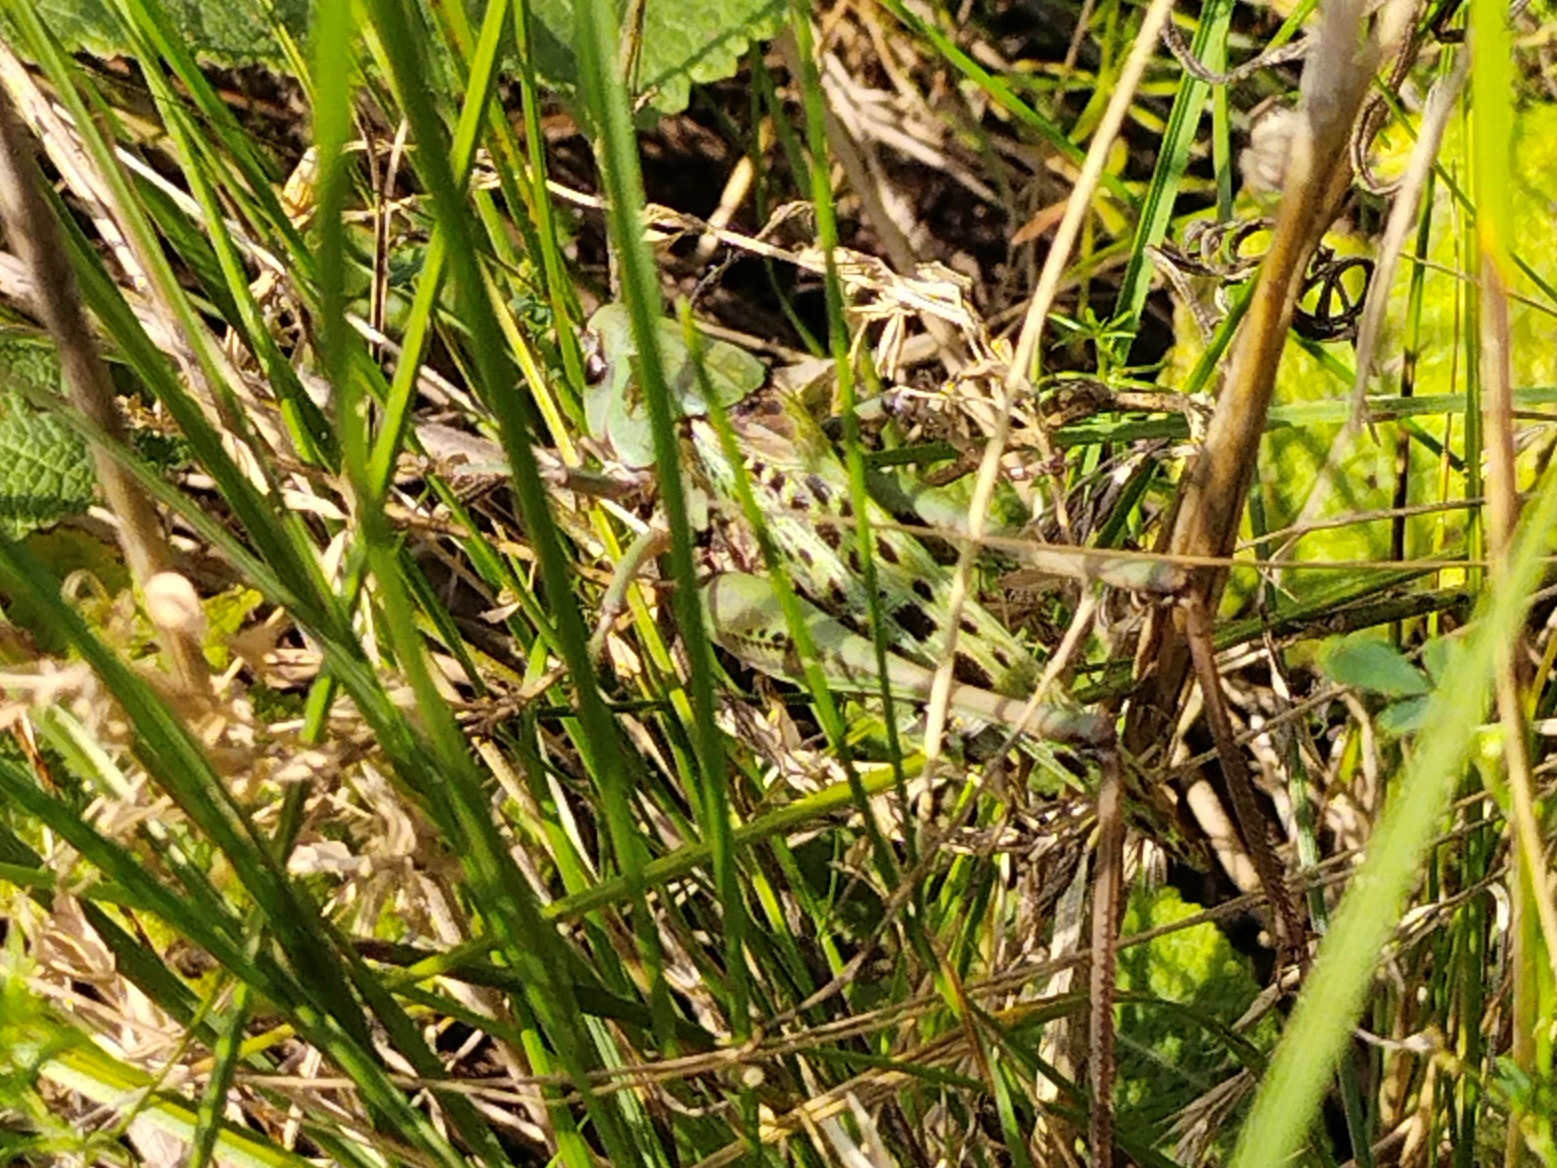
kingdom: Animalia
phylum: Arthropoda
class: Insecta
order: Orthoptera
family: Tettigoniidae
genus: Decticus
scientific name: Decticus verrucivorus
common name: Wart-biter
